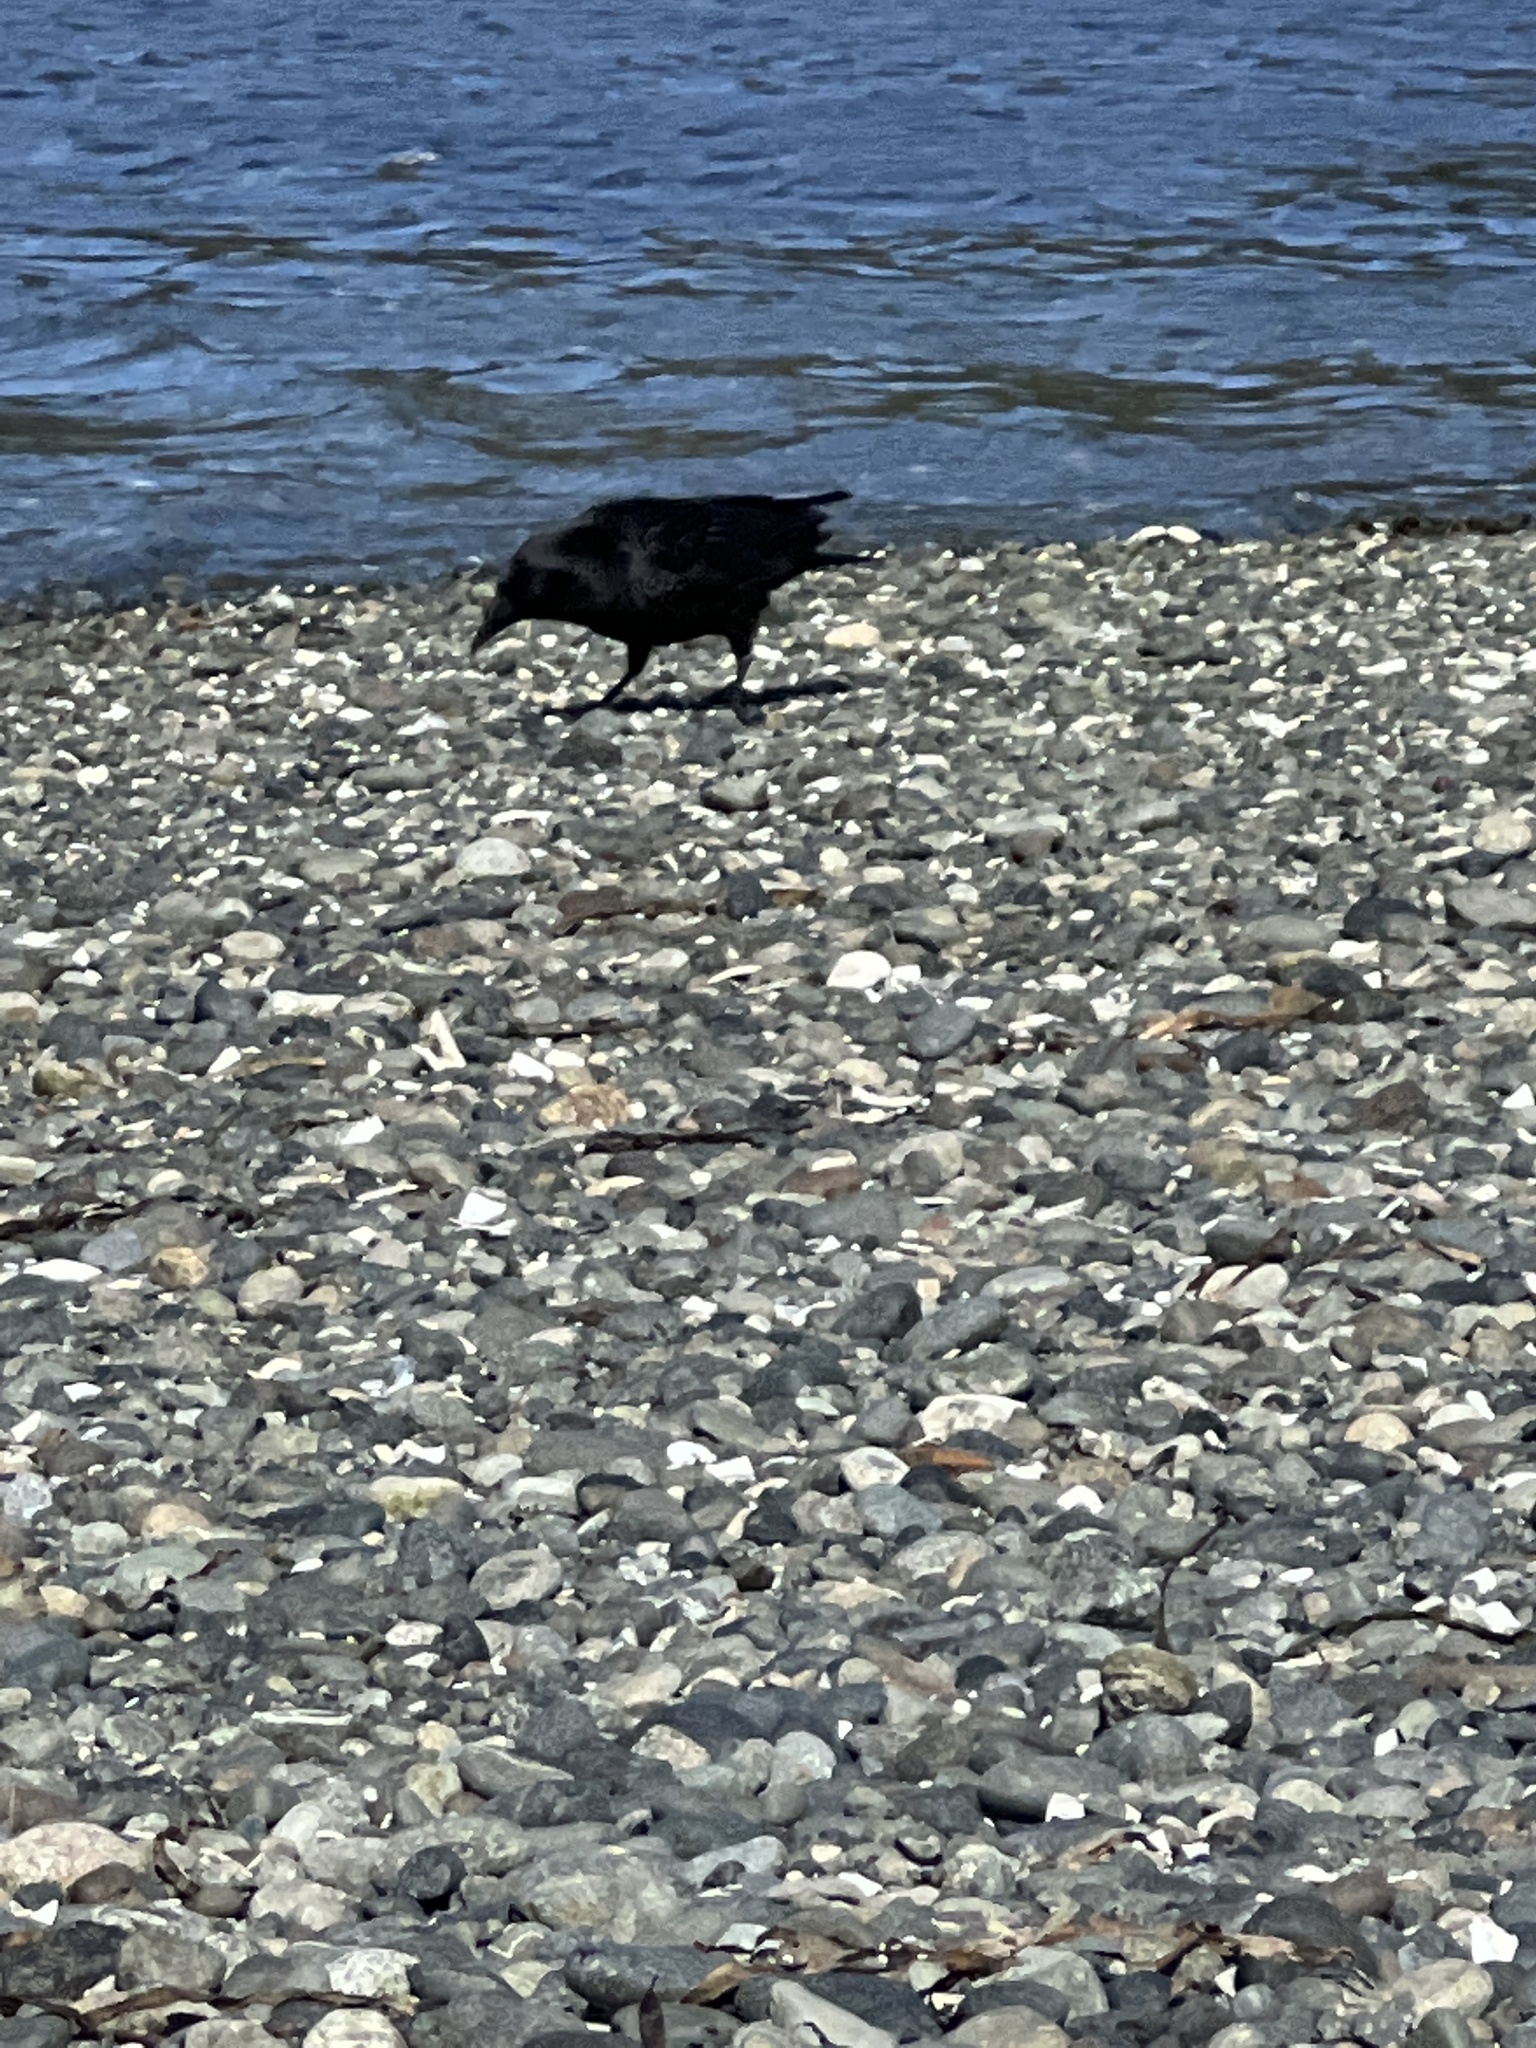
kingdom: Animalia
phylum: Chordata
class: Aves
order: Passeriformes
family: Corvidae
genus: Corvus
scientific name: Corvus brachyrhynchos
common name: American crow
